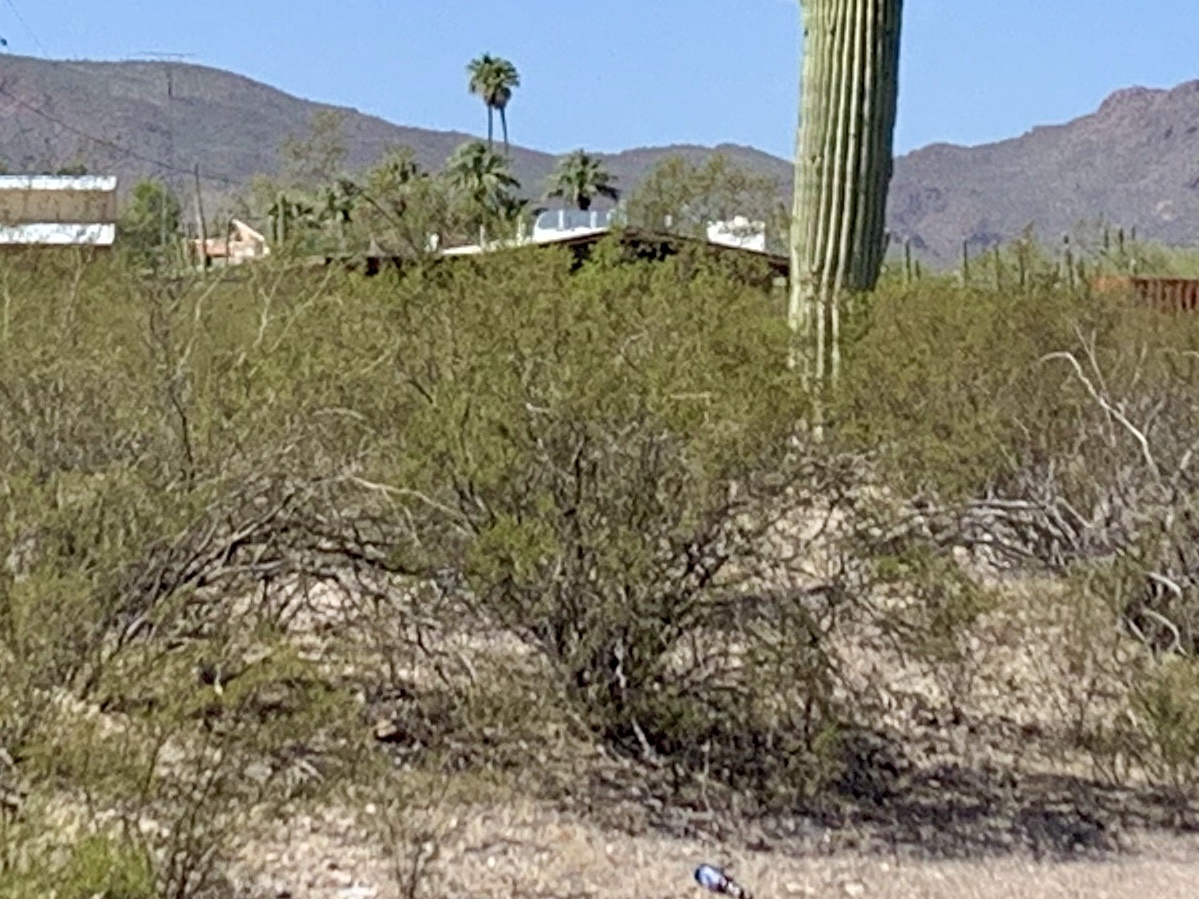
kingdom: Plantae
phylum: Tracheophyta
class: Magnoliopsida
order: Zygophyllales
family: Zygophyllaceae
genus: Larrea
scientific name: Larrea tridentata
